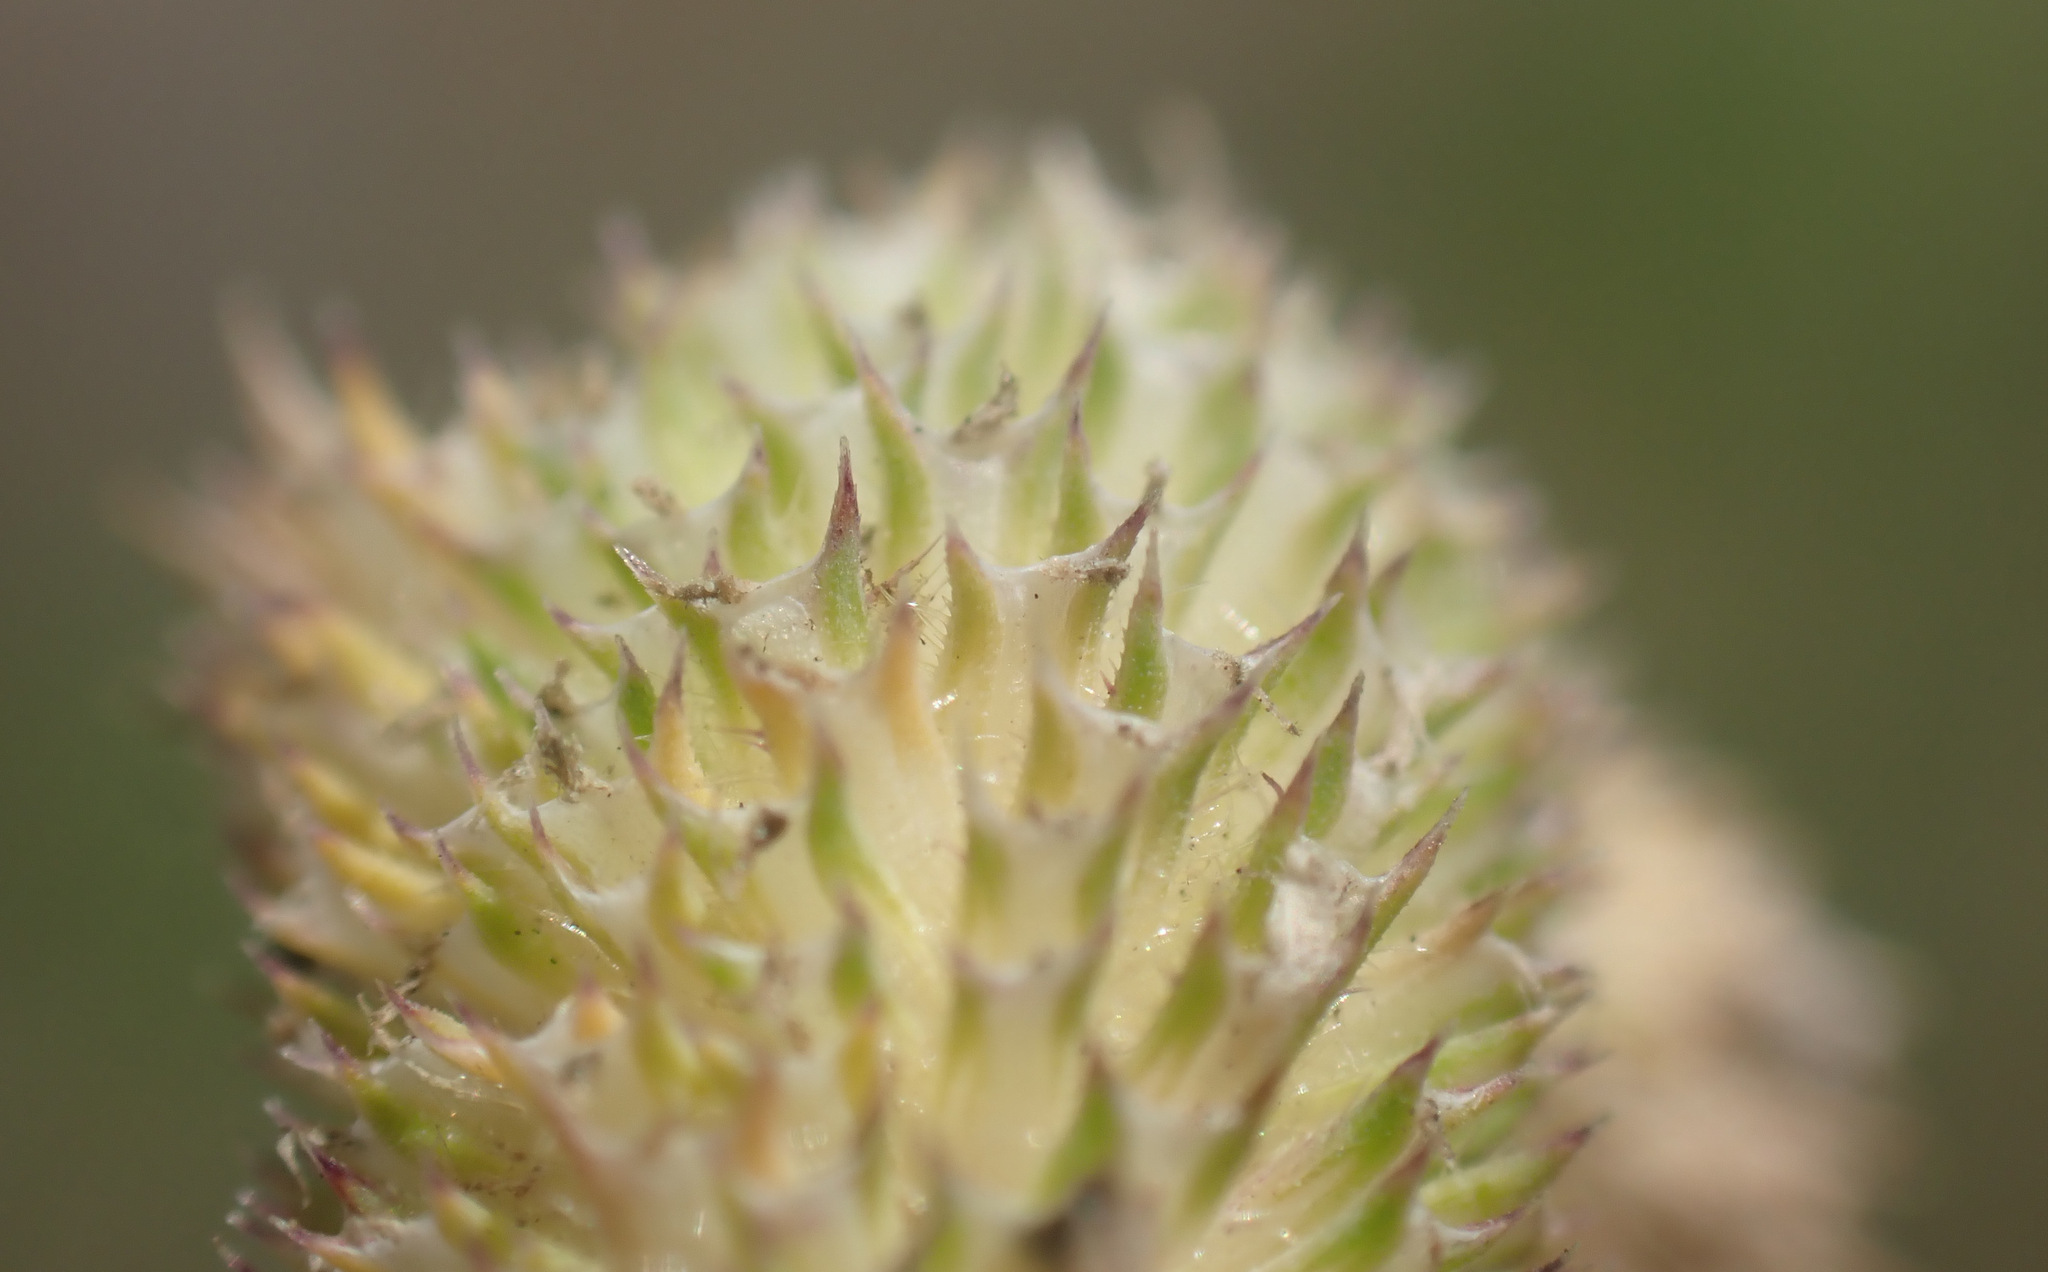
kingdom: Plantae
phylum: Tracheophyta
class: Liliopsida
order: Poales
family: Poaceae
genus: Phleum
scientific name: Phleum pratense
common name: Timothy grass
